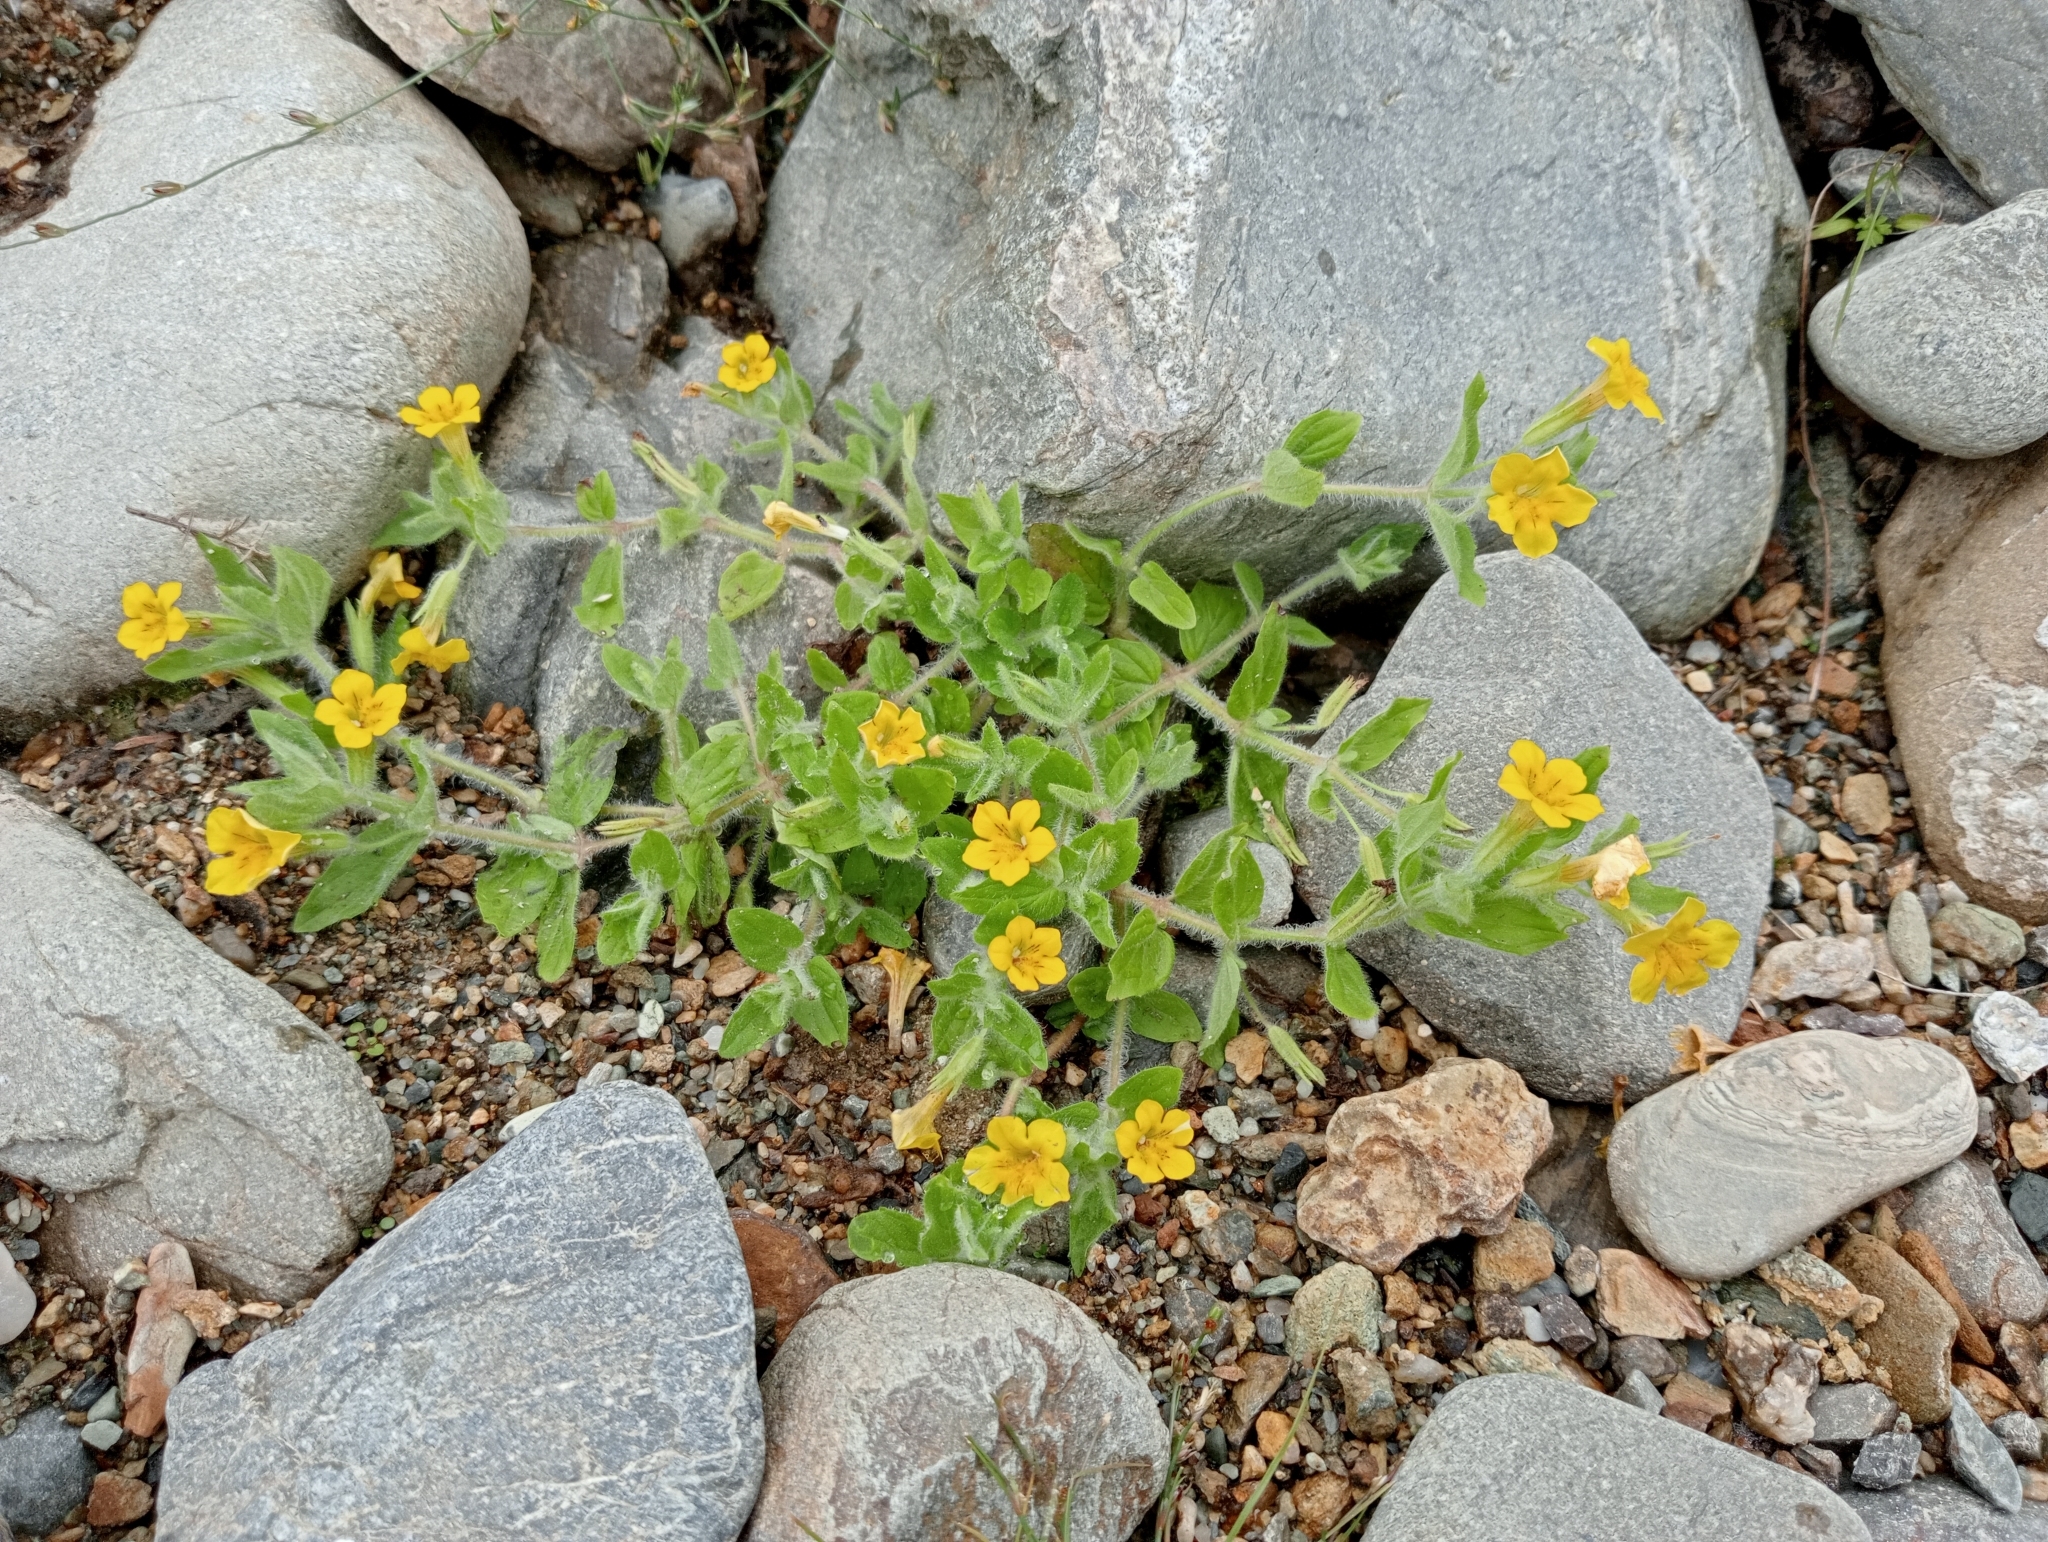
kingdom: Plantae
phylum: Tracheophyta
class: Magnoliopsida
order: Lamiales
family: Phrymaceae
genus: Erythranthe
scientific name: Erythranthe moschata
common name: Muskflower
